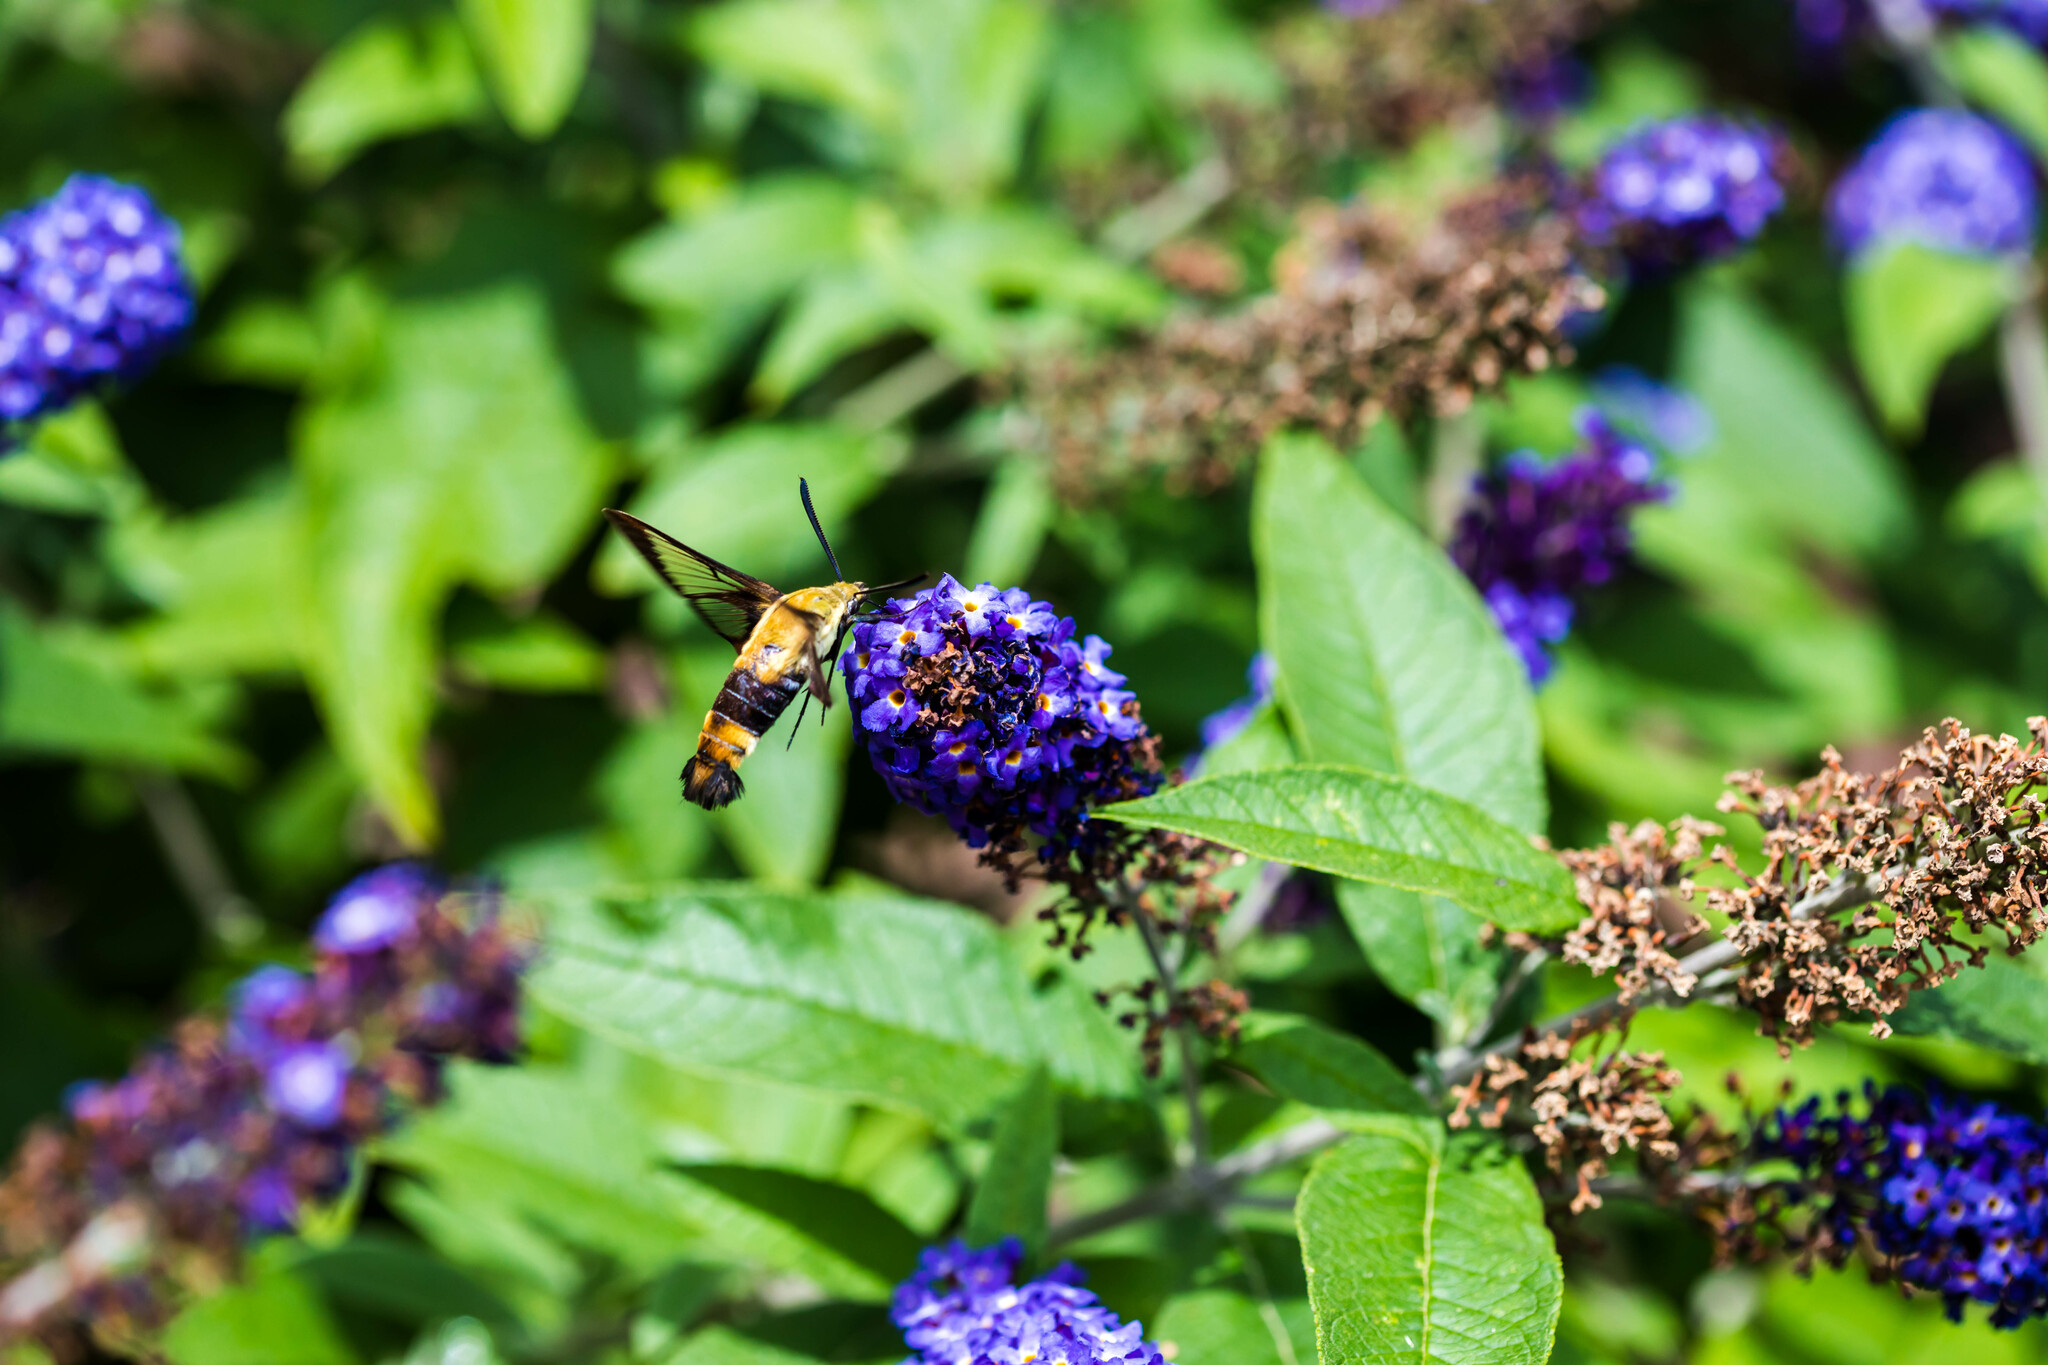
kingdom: Animalia
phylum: Arthropoda
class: Insecta
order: Lepidoptera
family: Sphingidae
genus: Hemaris
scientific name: Hemaris diffinis
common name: Bumblebee moth
